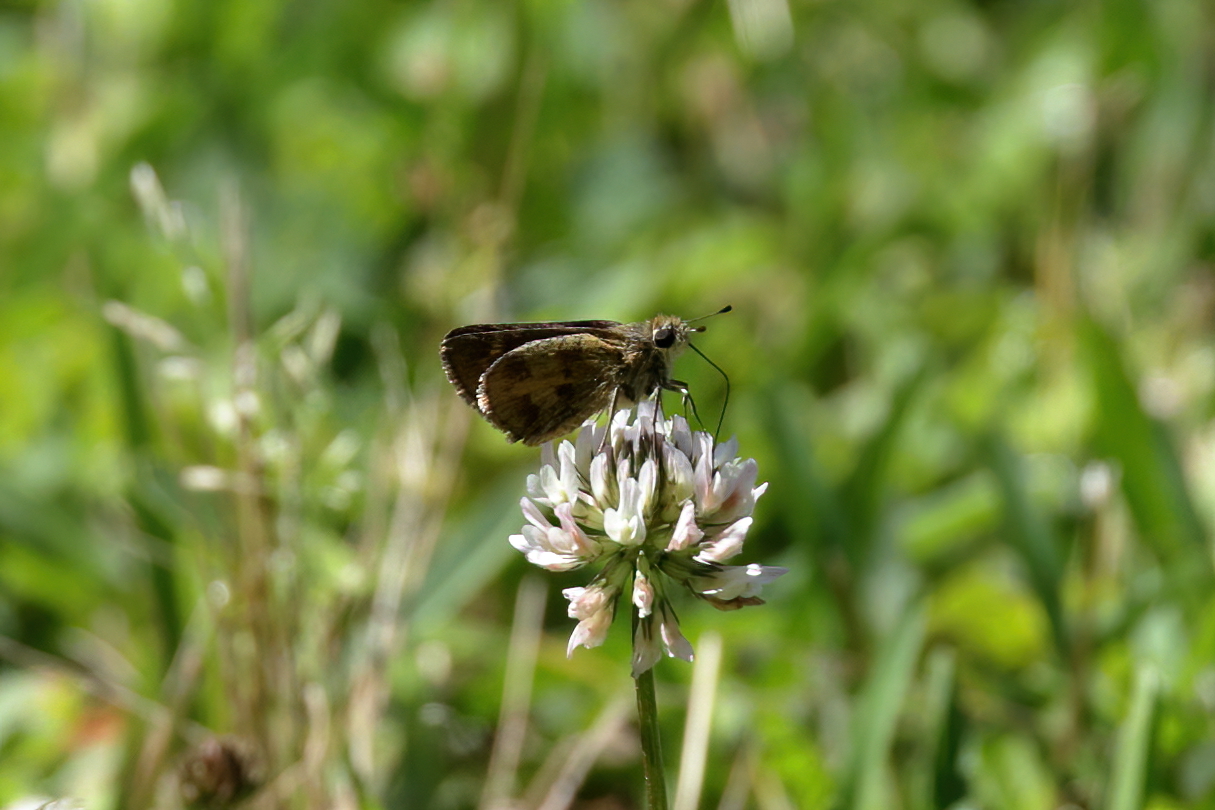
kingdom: Animalia
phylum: Arthropoda
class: Insecta
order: Lepidoptera
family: Hesperiidae
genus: Polites
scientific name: Polites vibex
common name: Whirlabout
